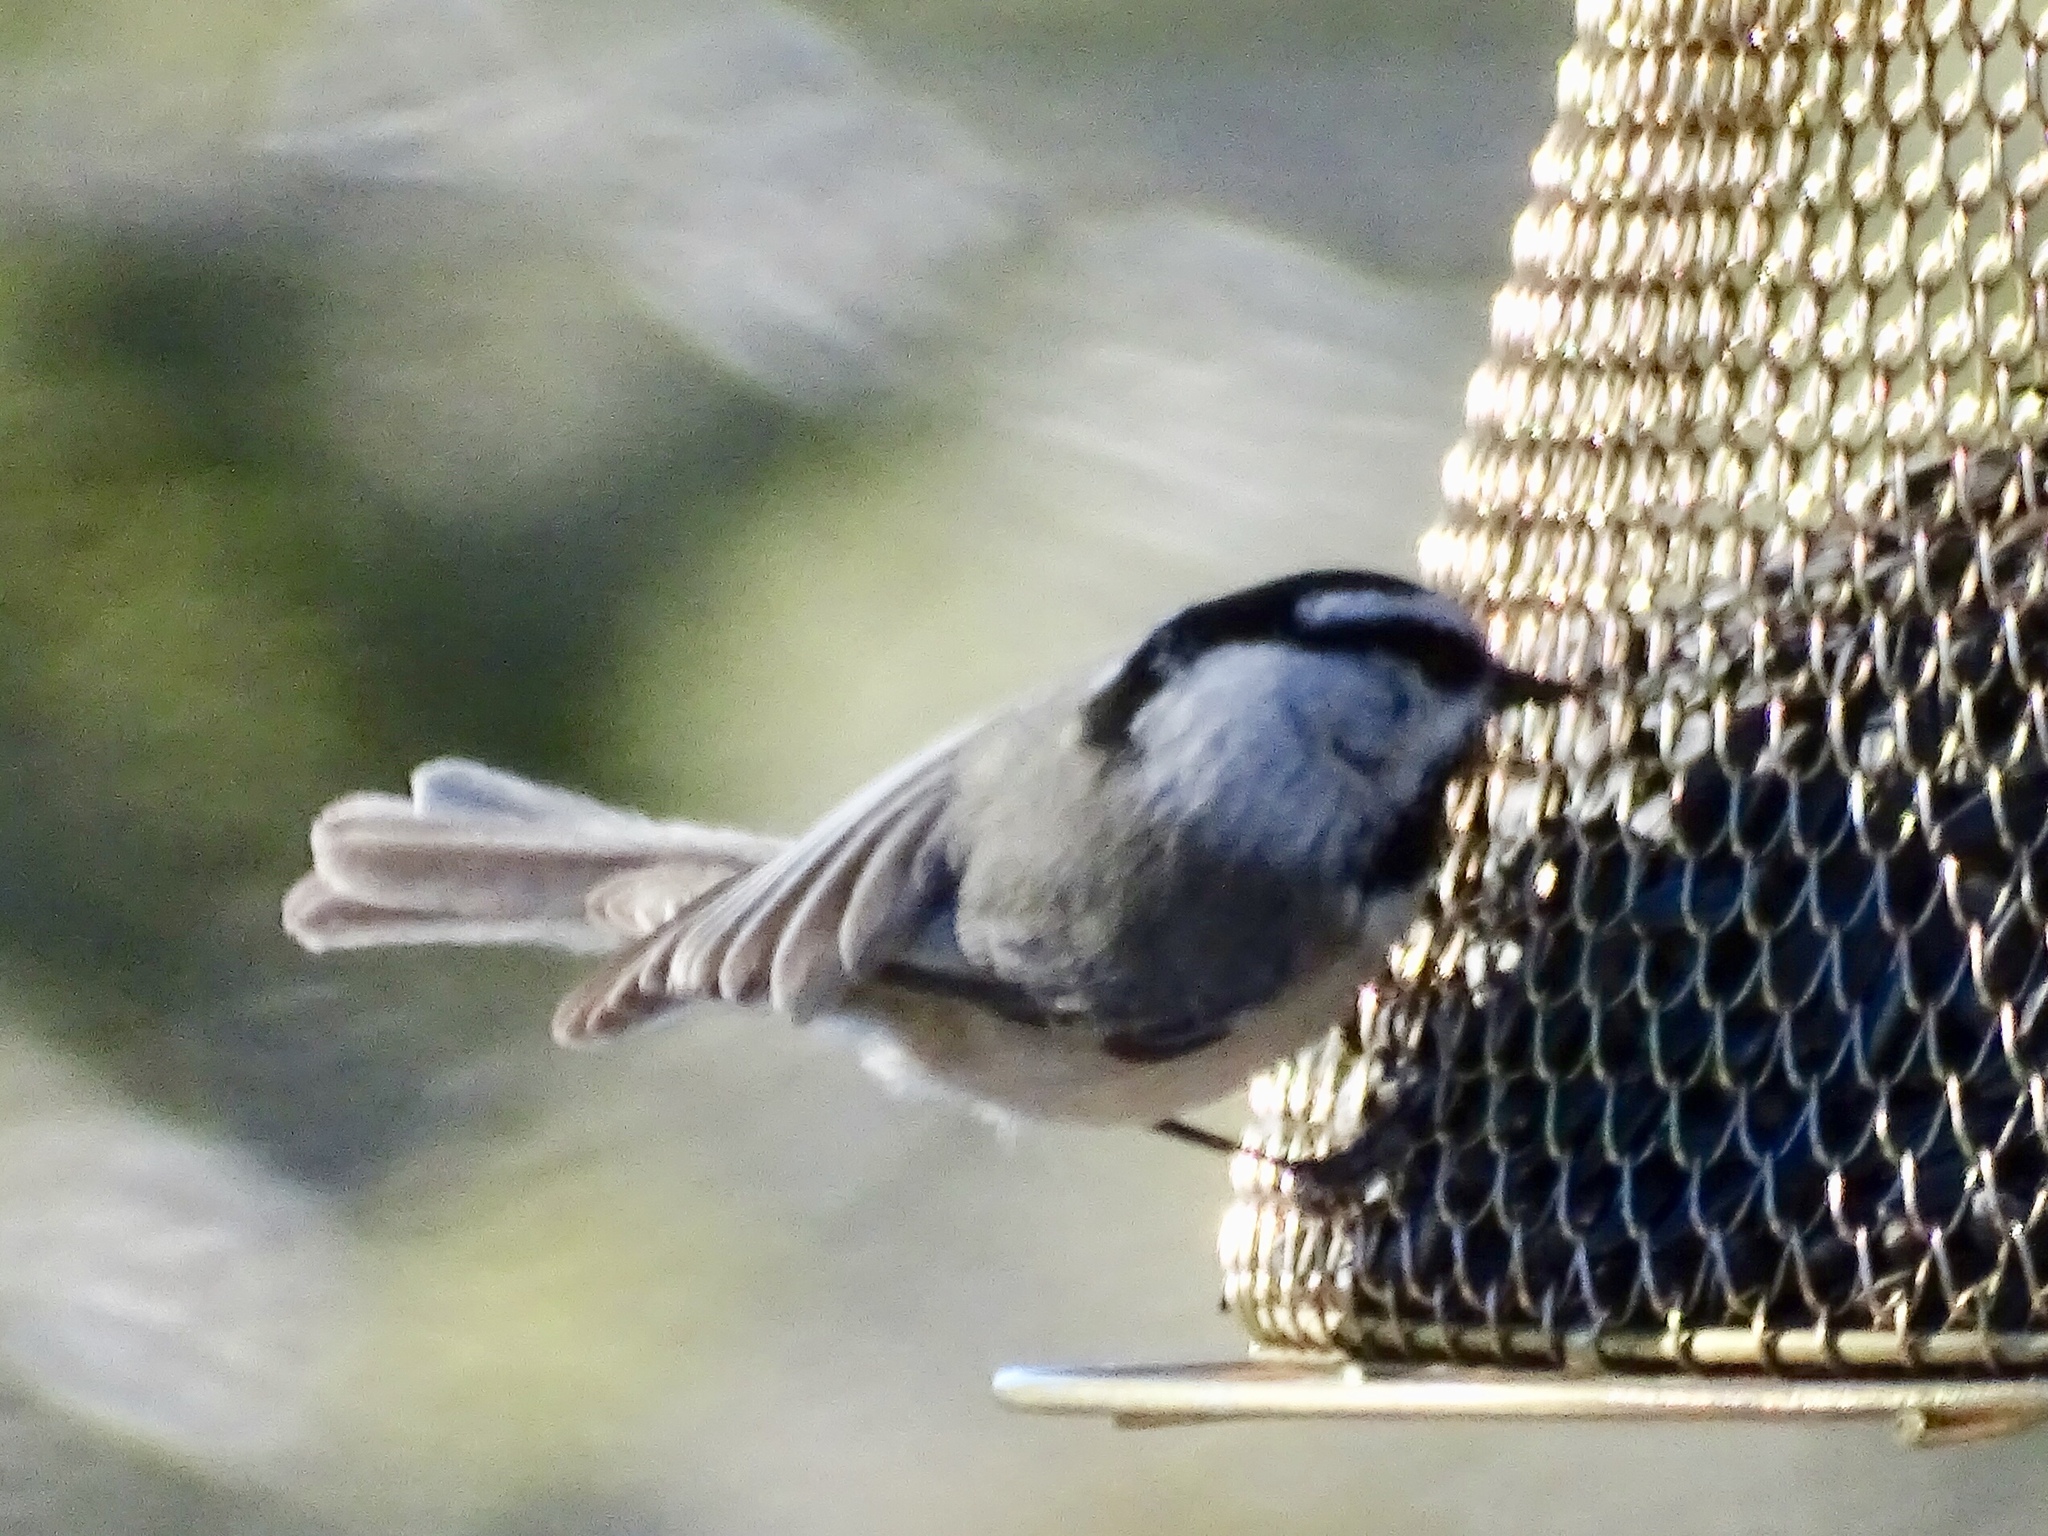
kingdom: Animalia
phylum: Chordata
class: Aves
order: Passeriformes
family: Paridae
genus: Poecile
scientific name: Poecile gambeli
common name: Mountain chickadee
